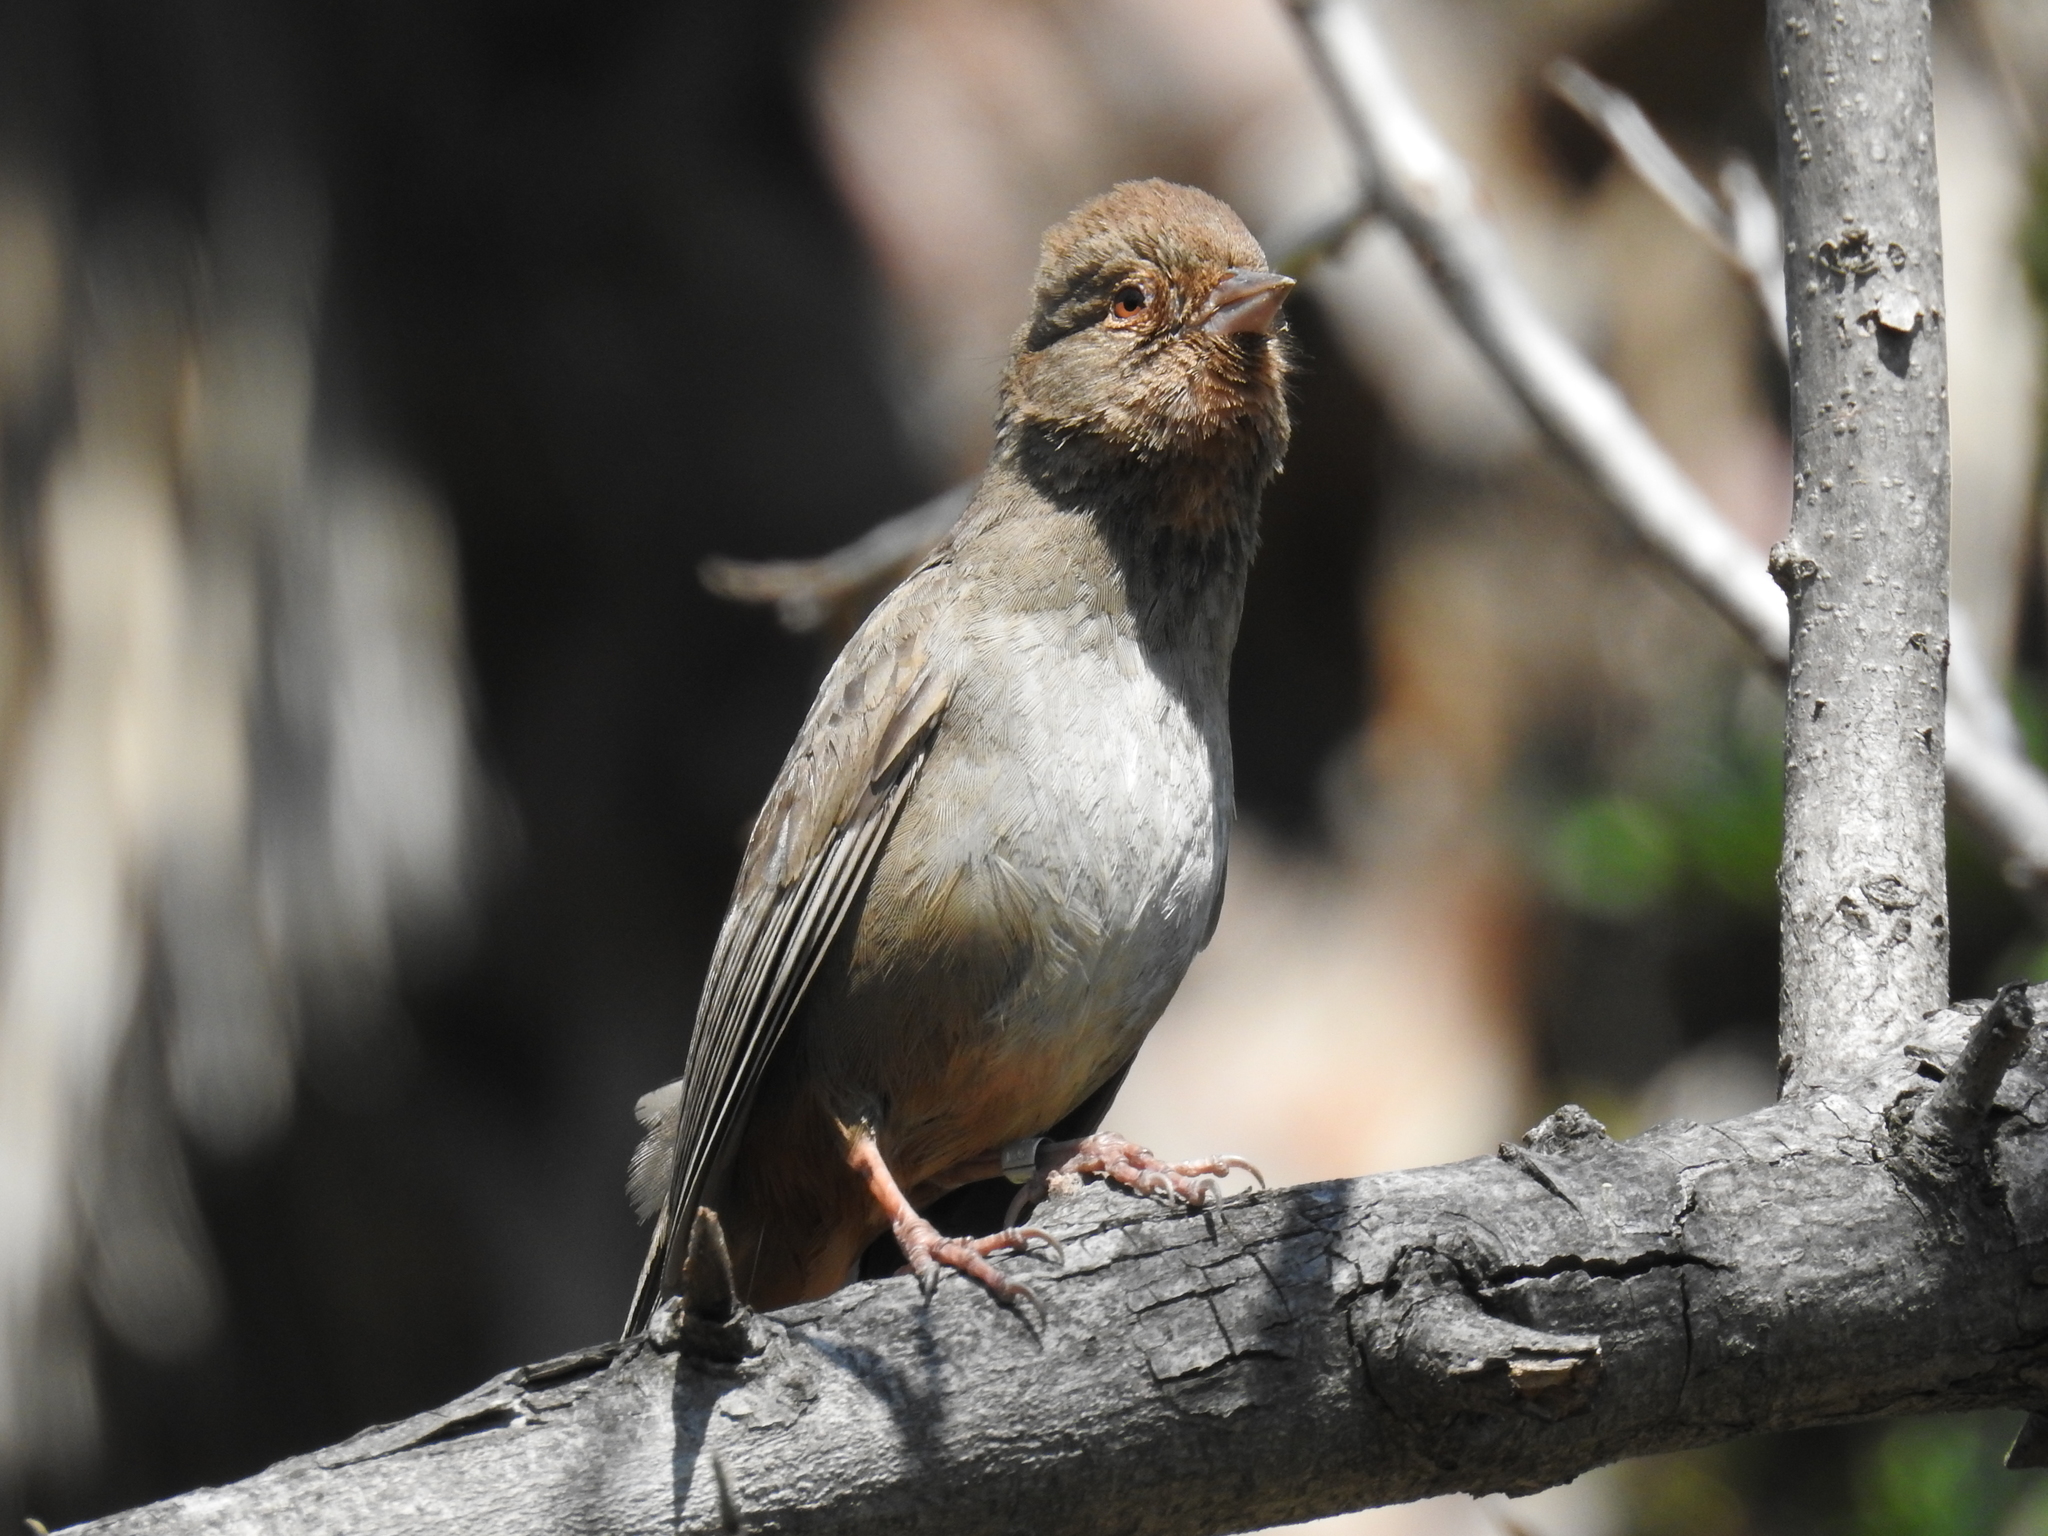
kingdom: Animalia
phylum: Chordata
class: Aves
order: Passeriformes
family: Passerellidae
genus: Melozone
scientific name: Melozone crissalis
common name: California towhee
